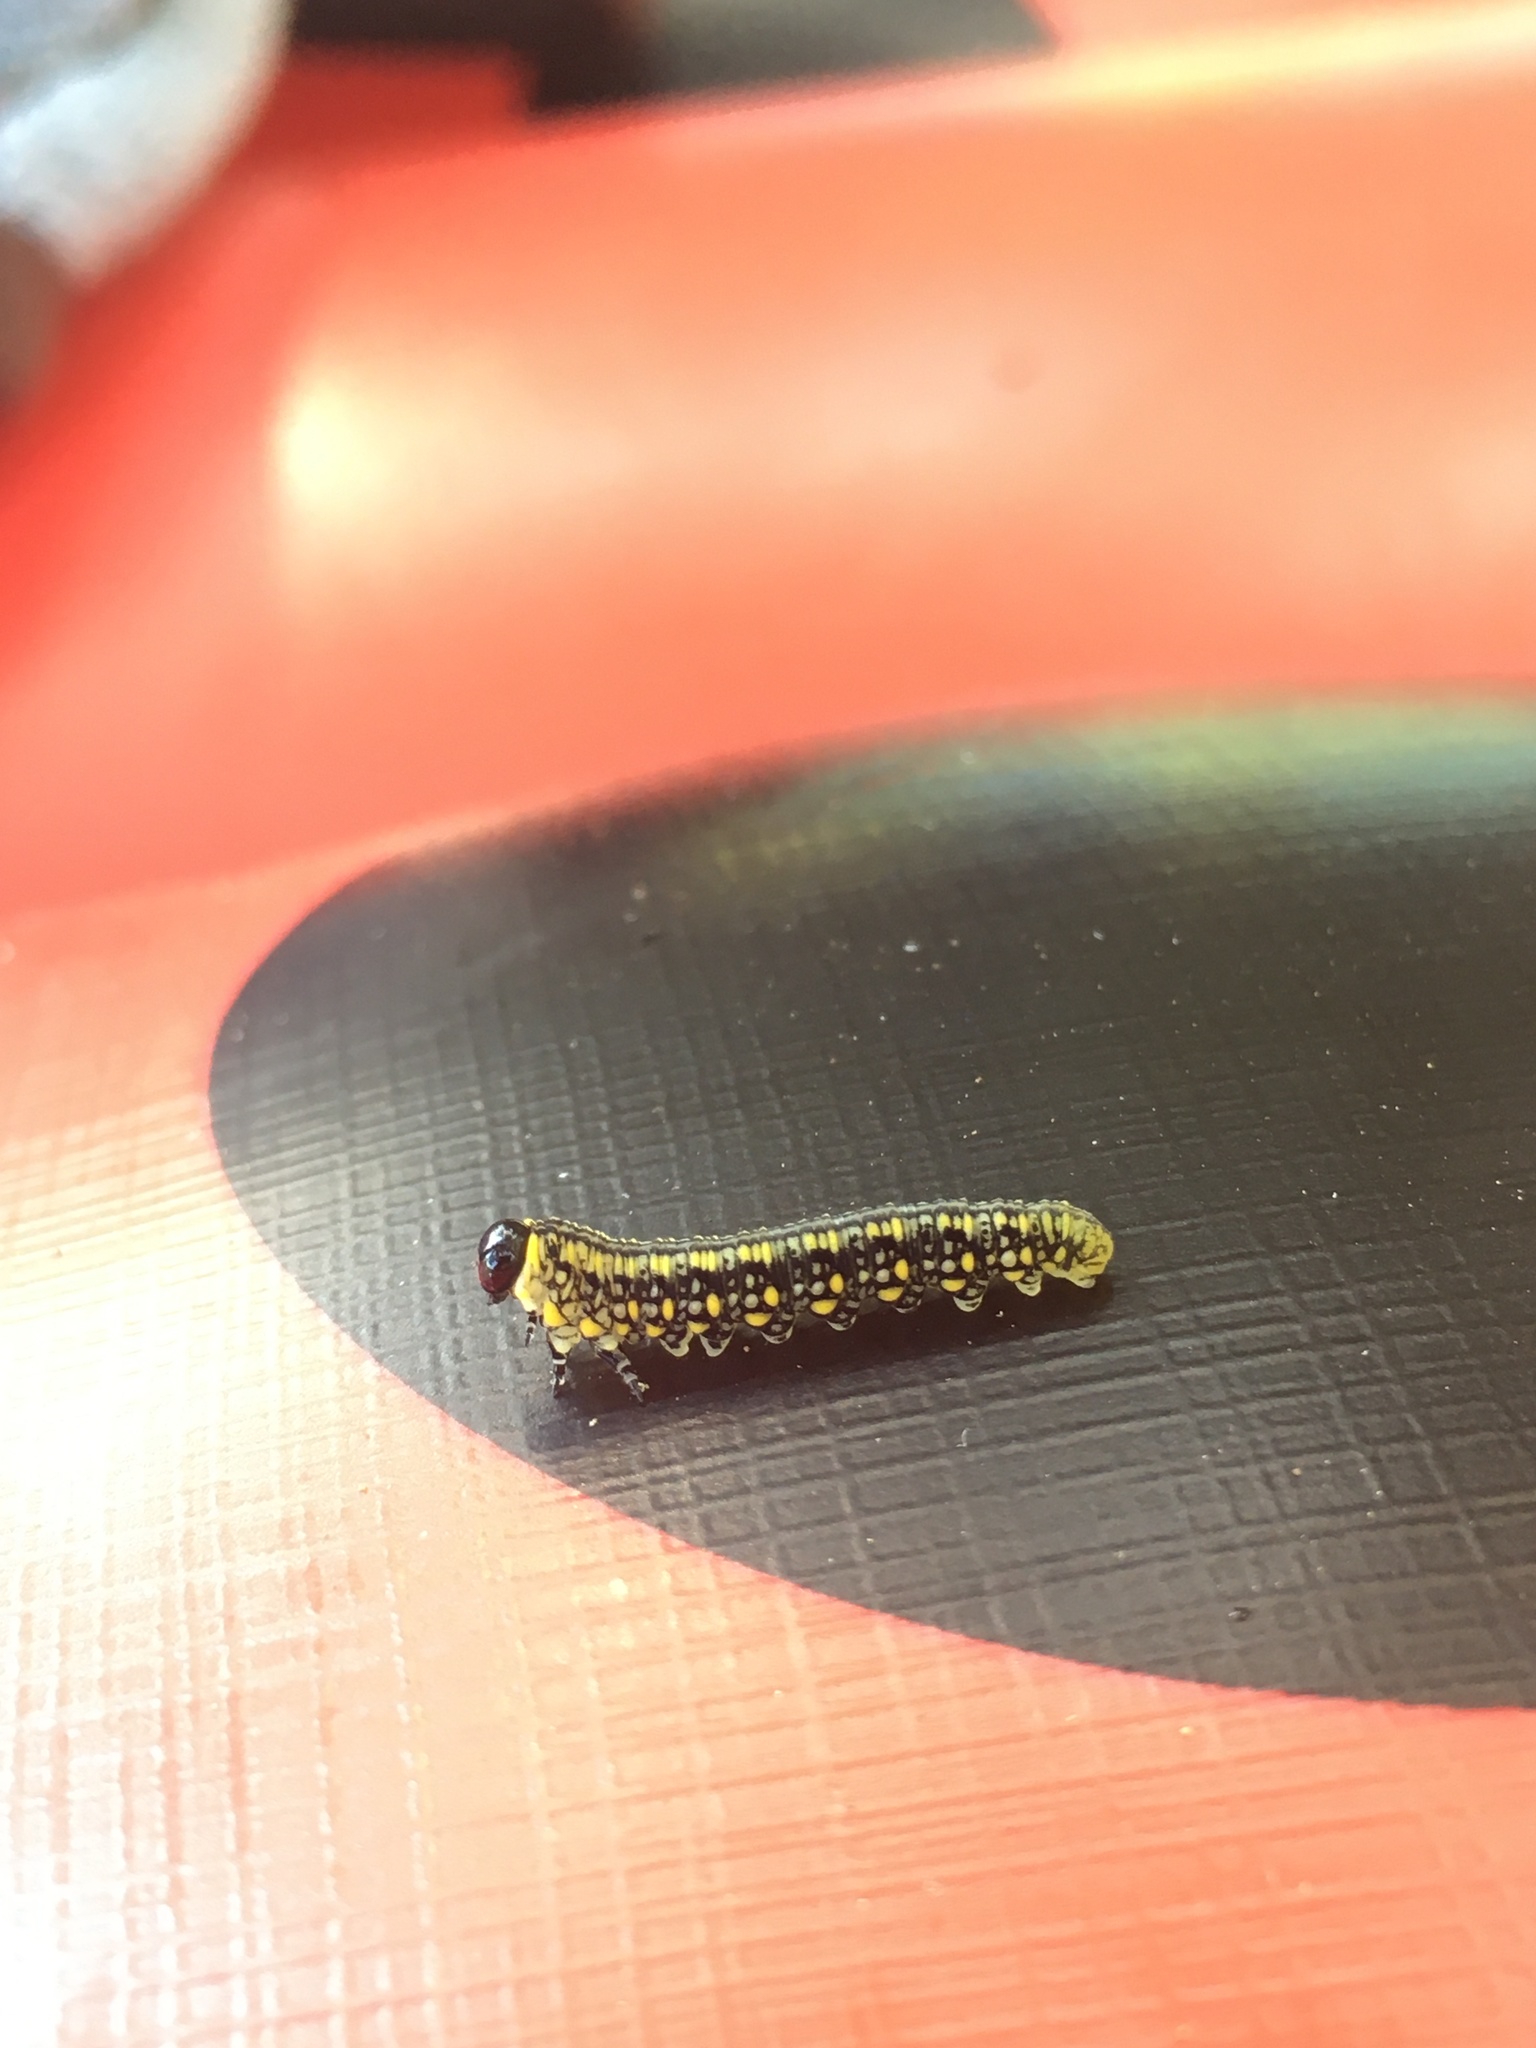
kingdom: Animalia
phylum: Arthropoda
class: Insecta
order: Hymenoptera
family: Diprionidae
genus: Diprion
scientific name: Diprion similis
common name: Pine sawfly
